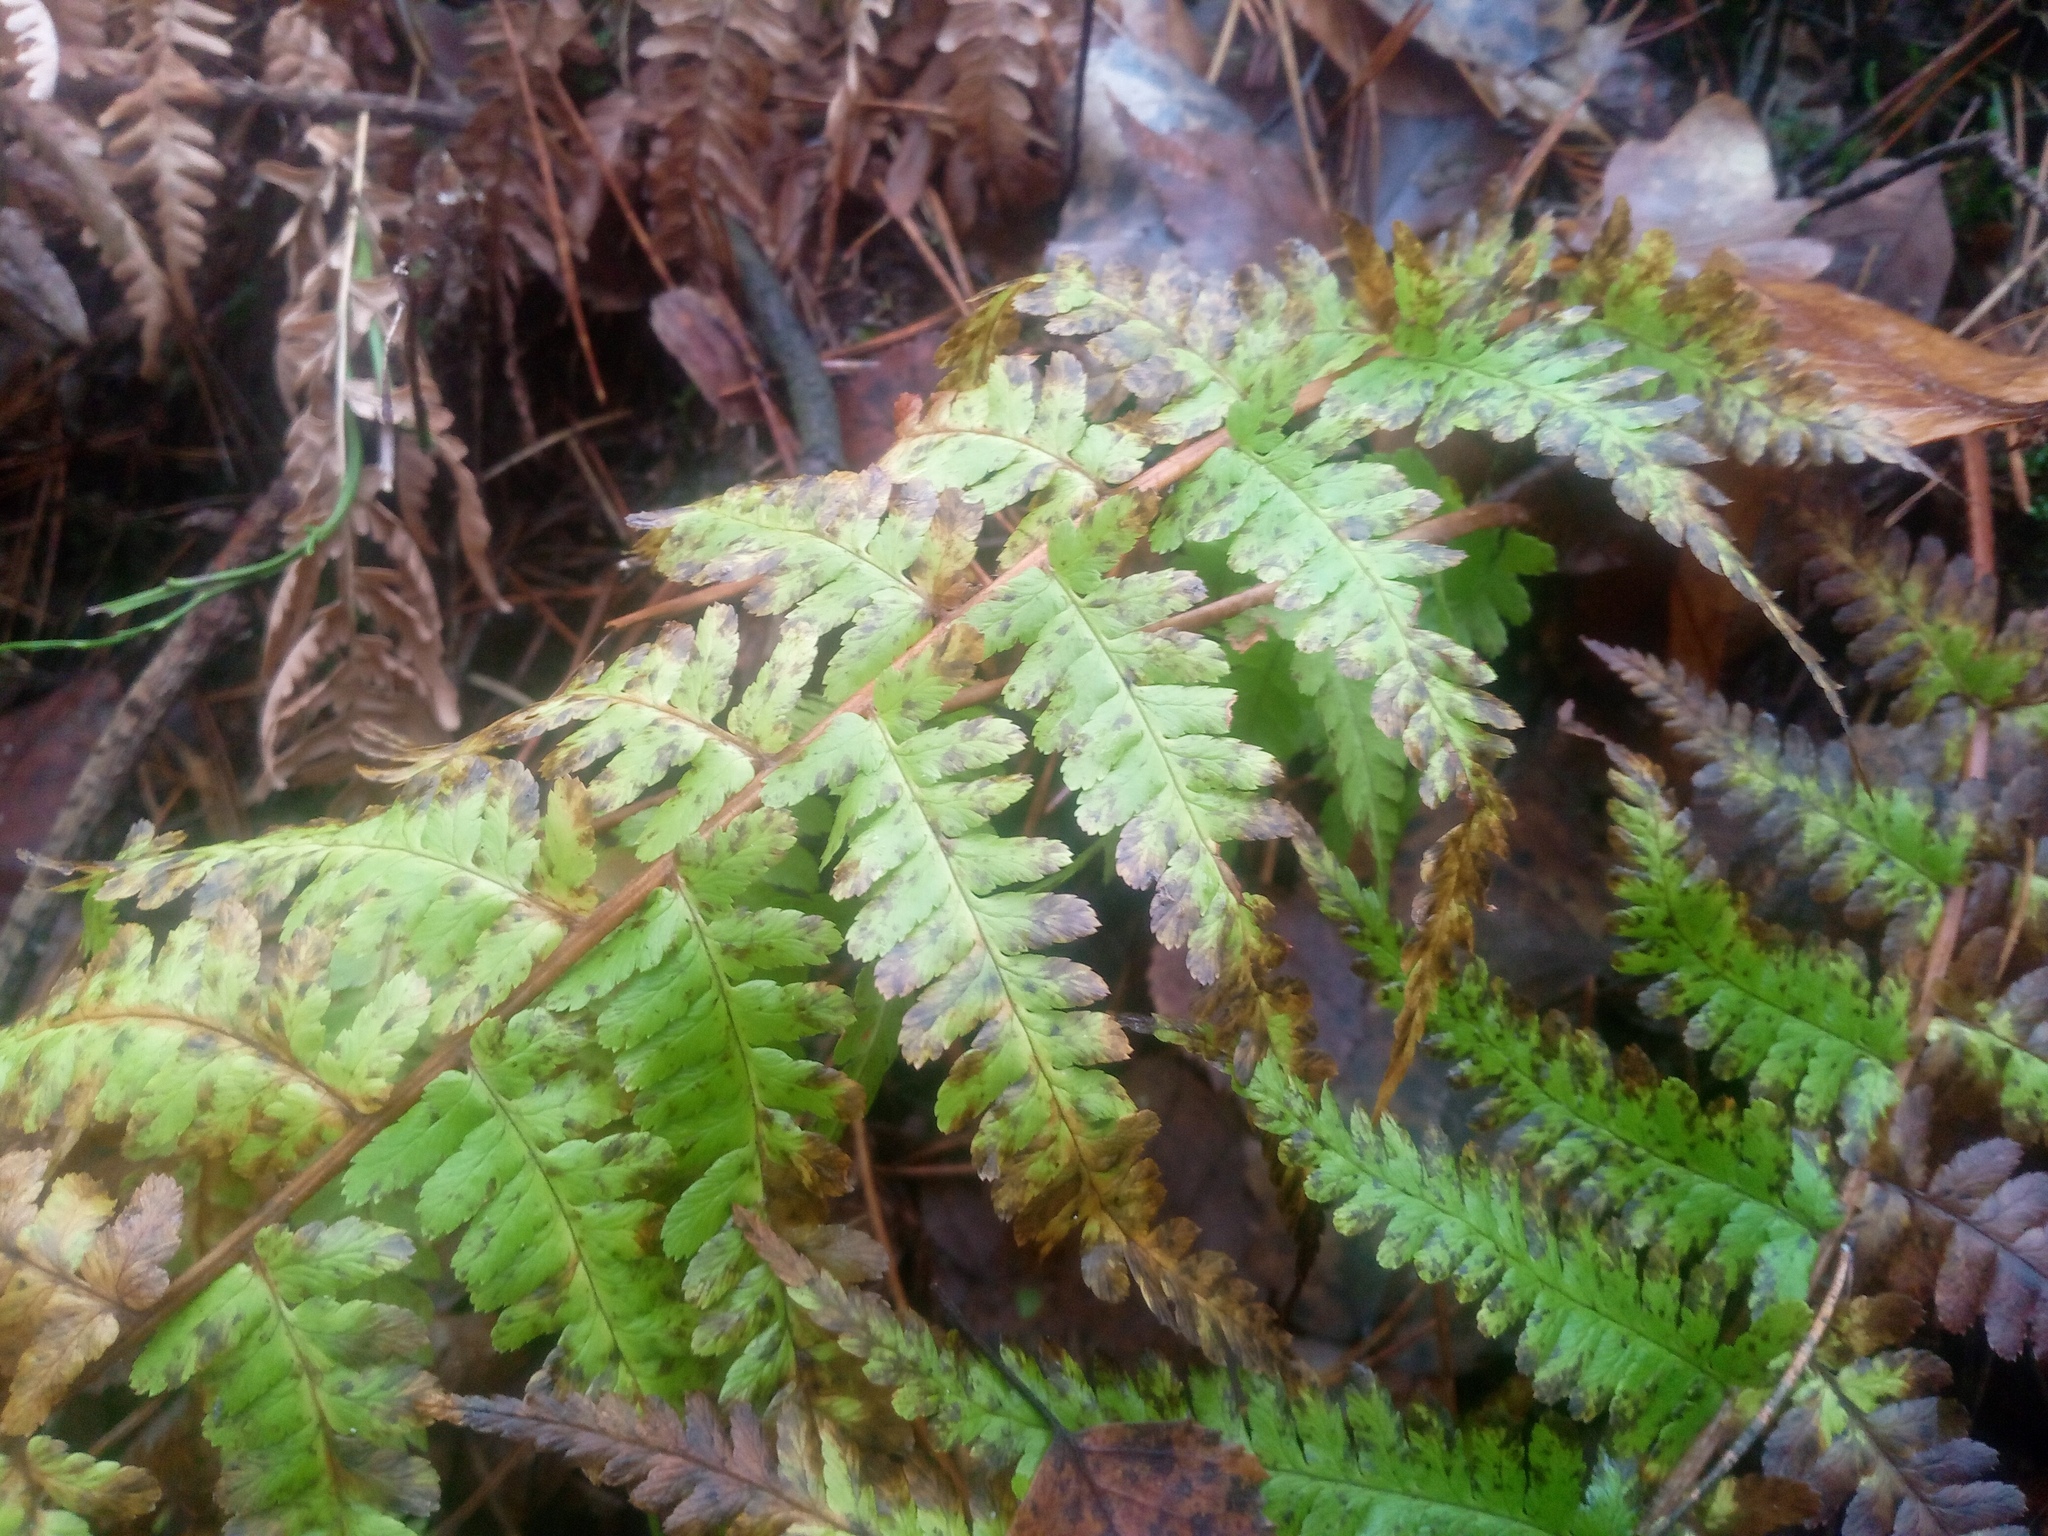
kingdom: Plantae
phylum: Tracheophyta
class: Polypodiopsida
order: Polypodiales
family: Dryopteridaceae
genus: Dryopteris
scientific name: Dryopteris filix-mas
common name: Male fern
